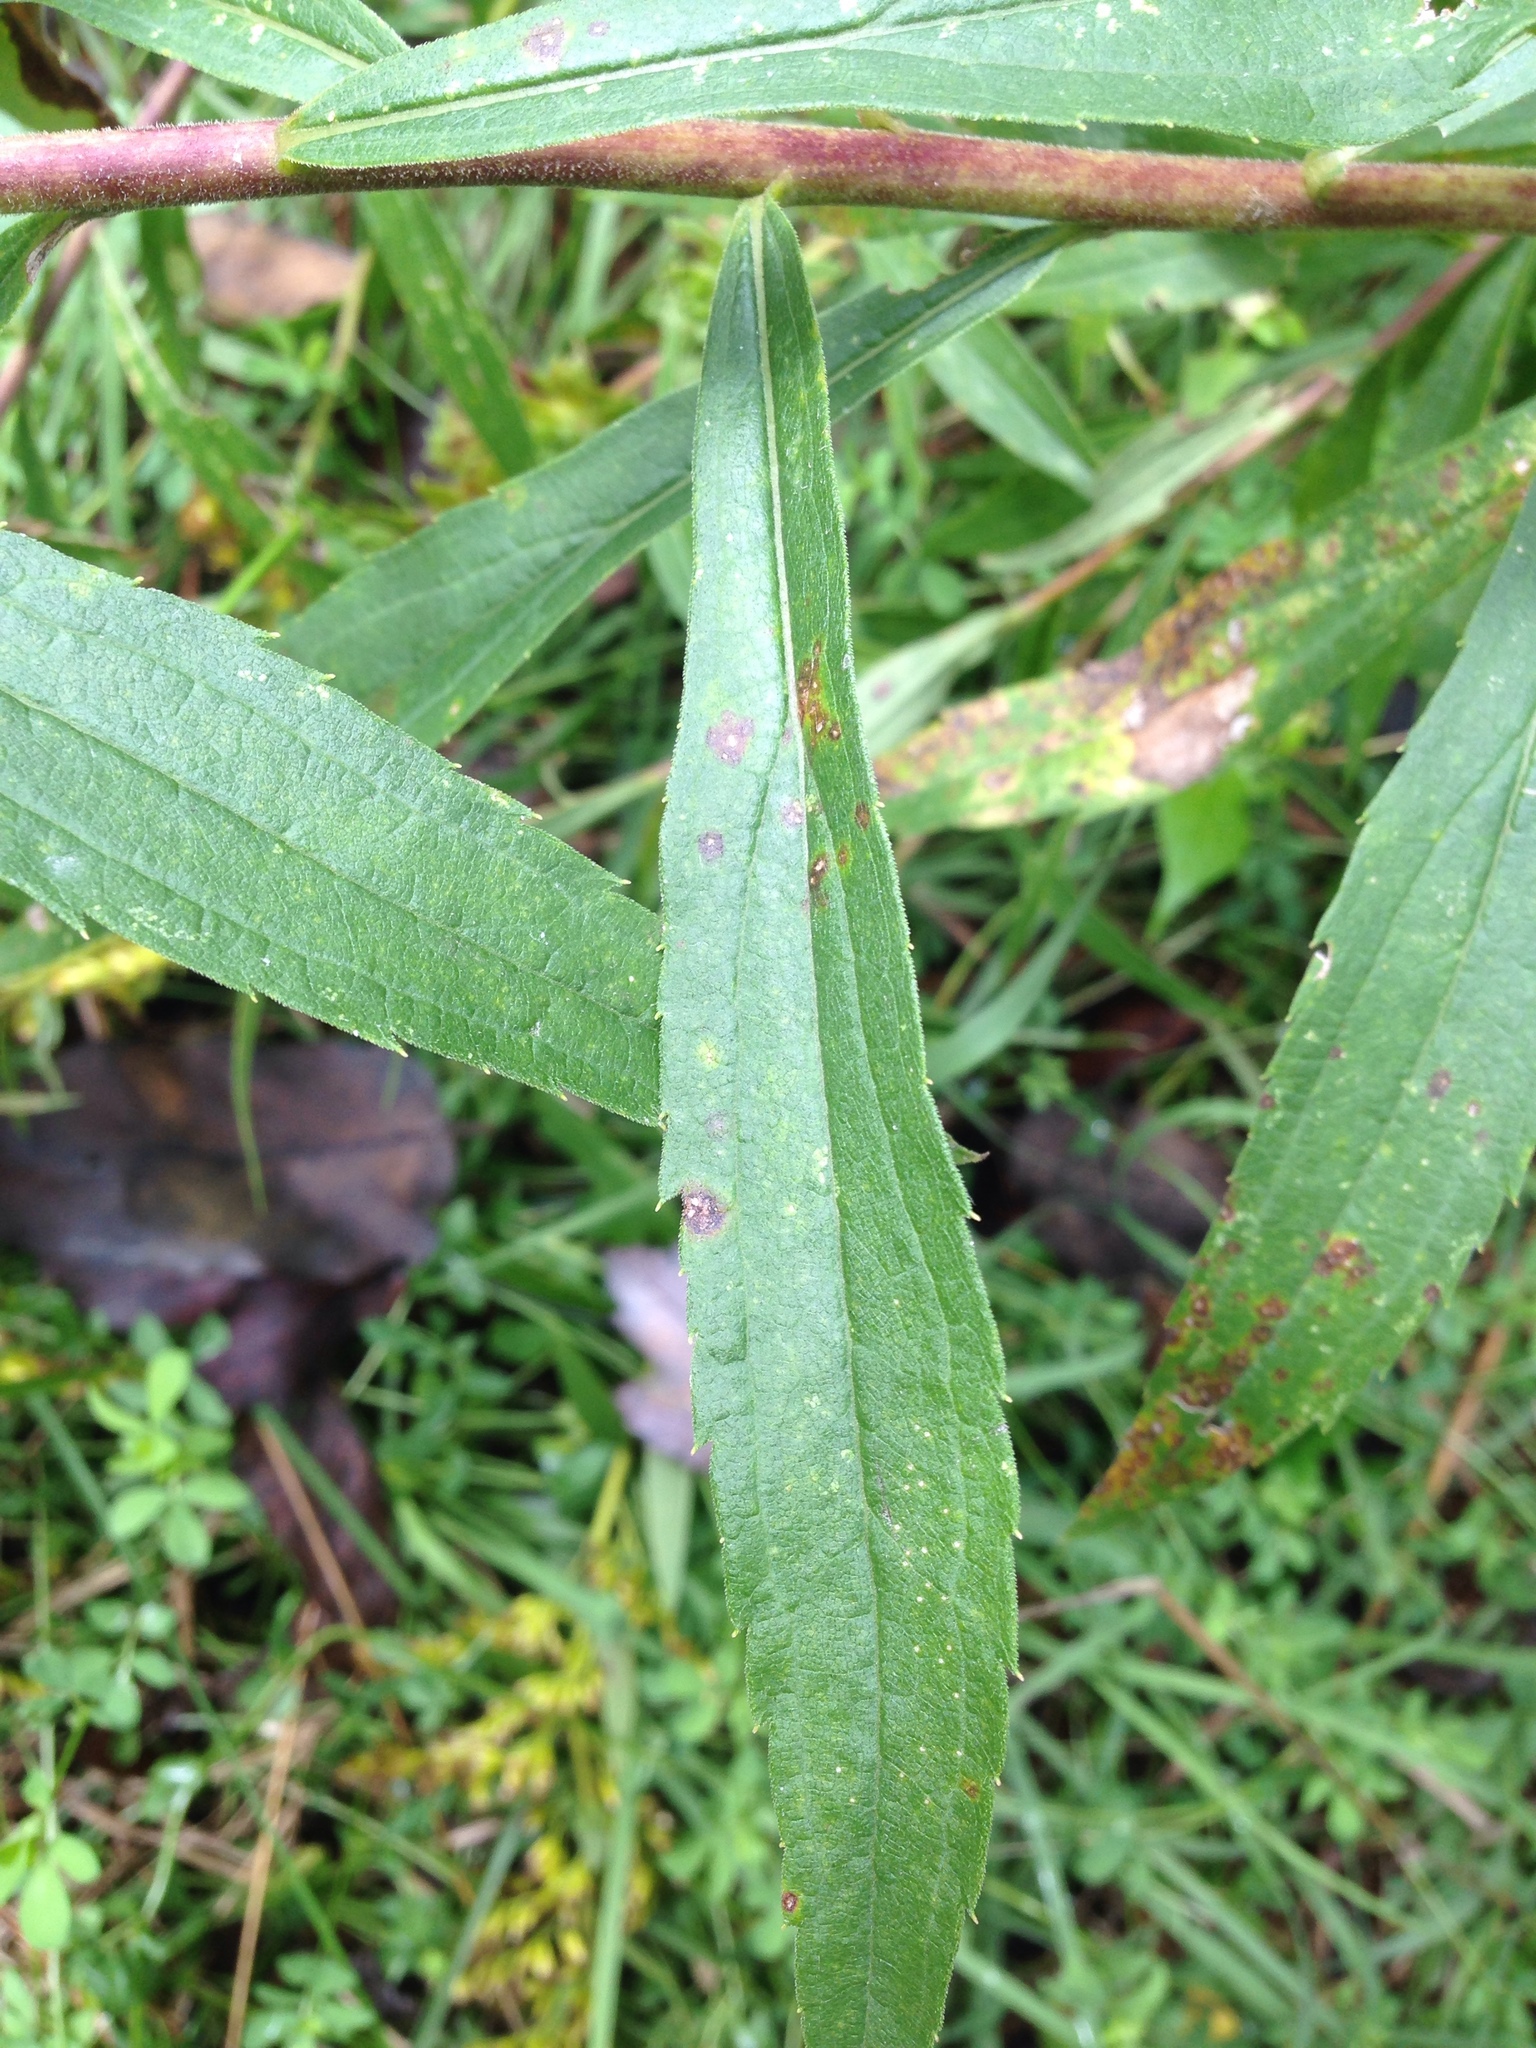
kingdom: Plantae
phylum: Tracheophyta
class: Magnoliopsida
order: Asterales
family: Asteraceae
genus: Solidago
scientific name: Solidago canadensis
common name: Canada goldenrod
